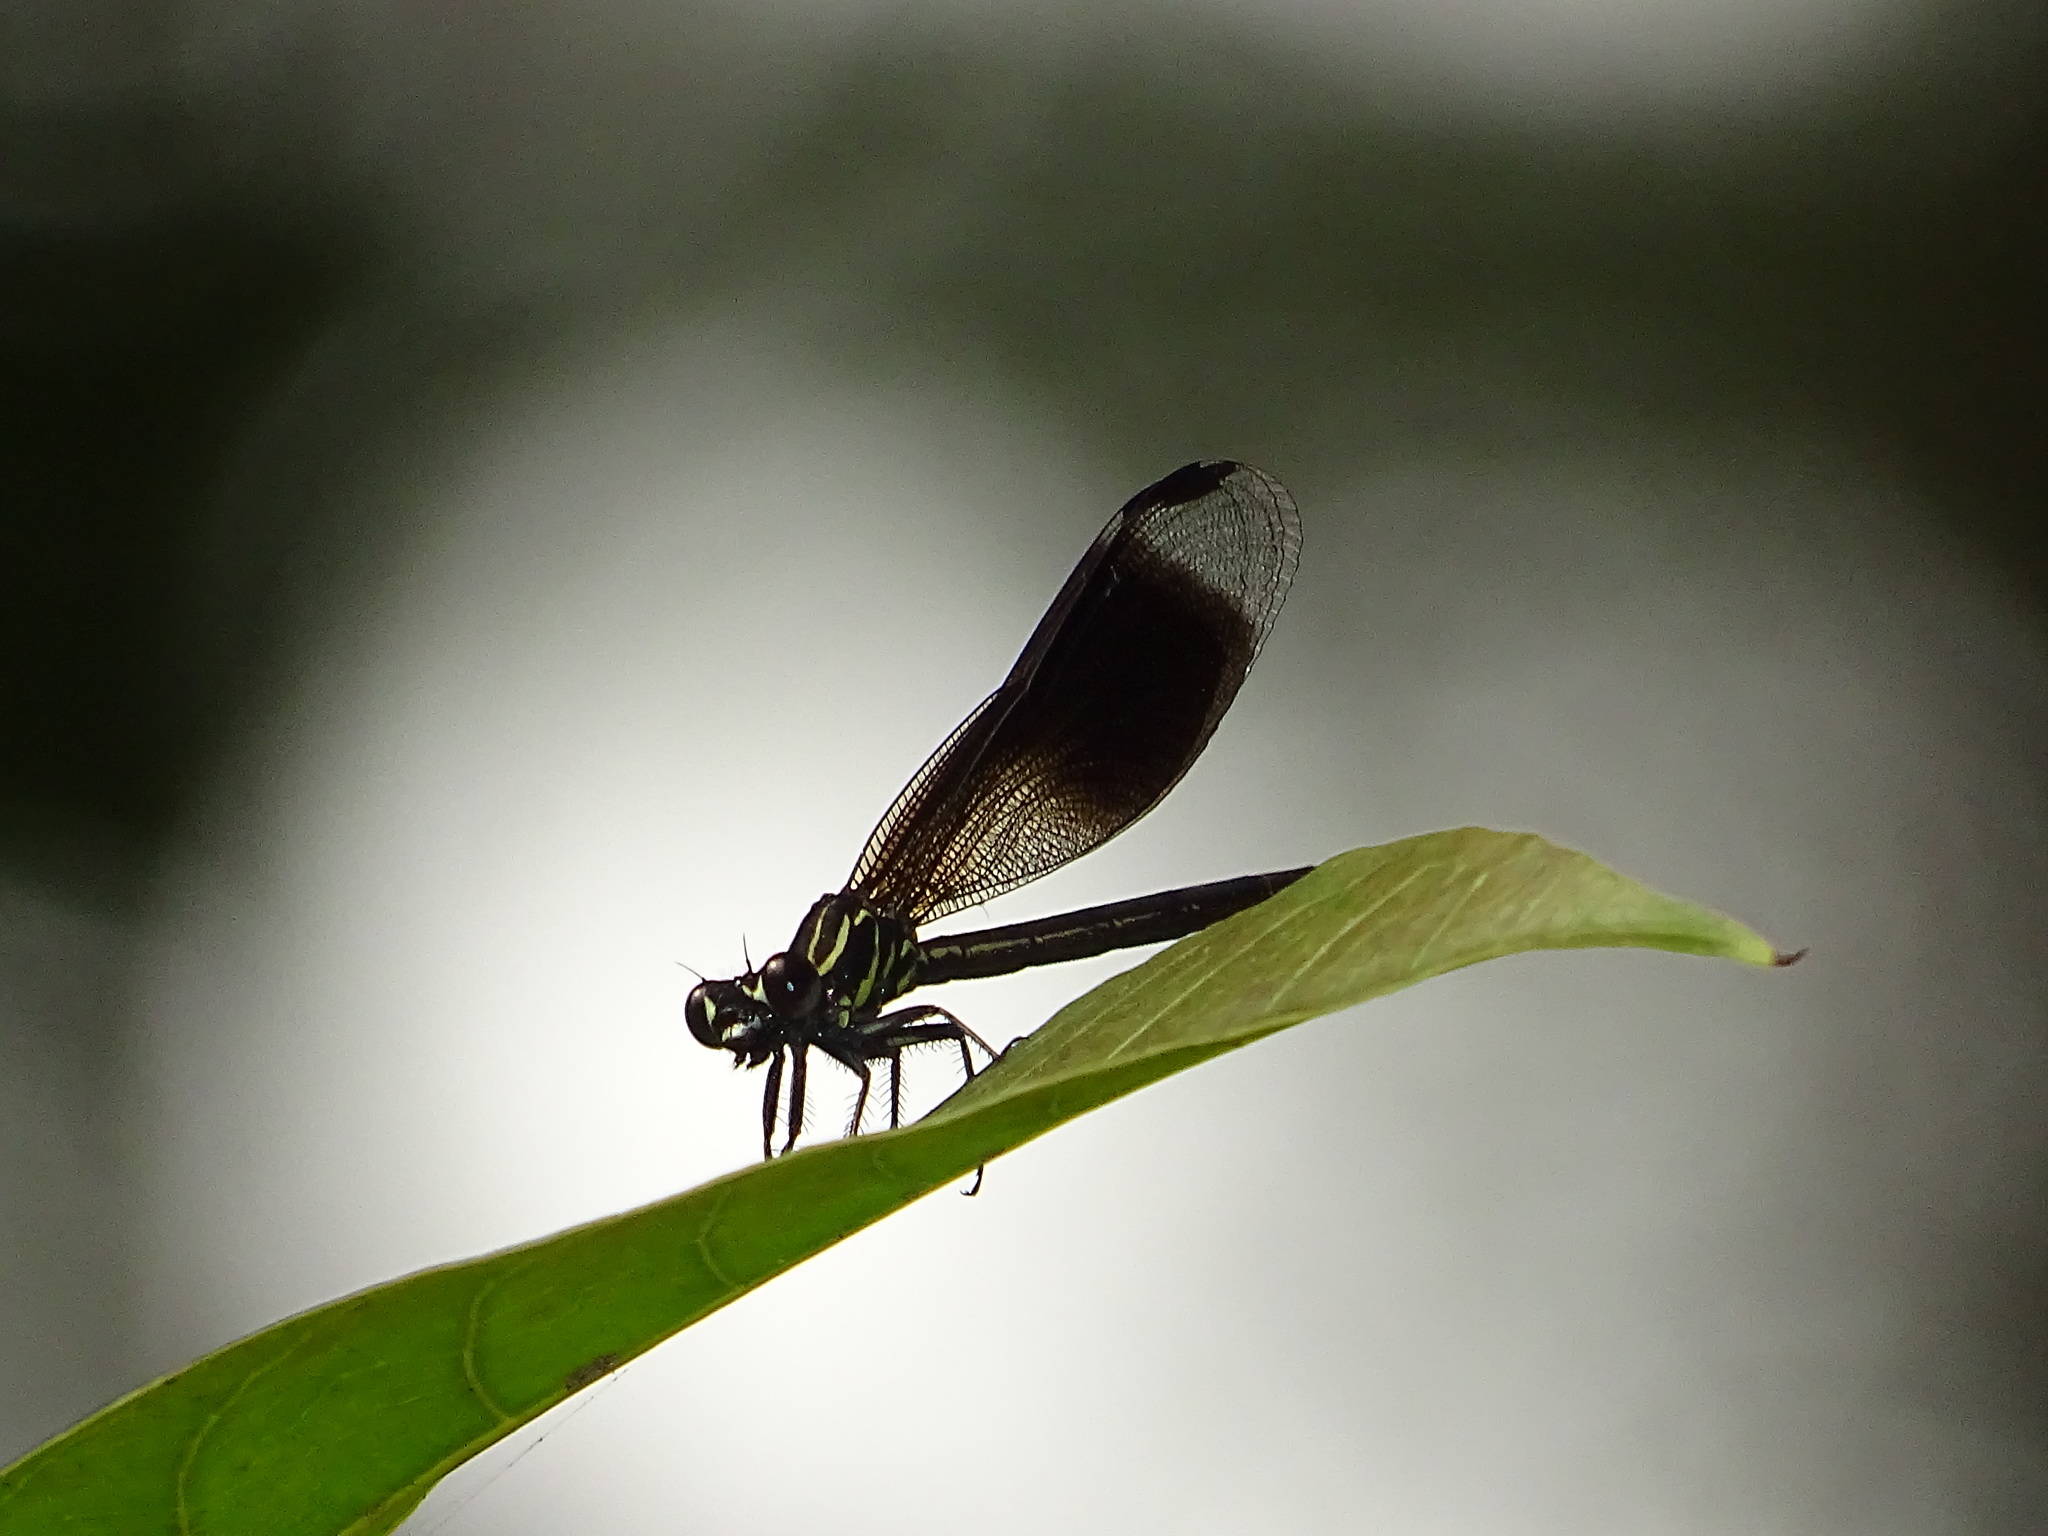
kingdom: Animalia
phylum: Arthropoda
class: Insecta
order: Odonata
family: Euphaeidae
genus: Euphaea
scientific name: Euphaea formosa
